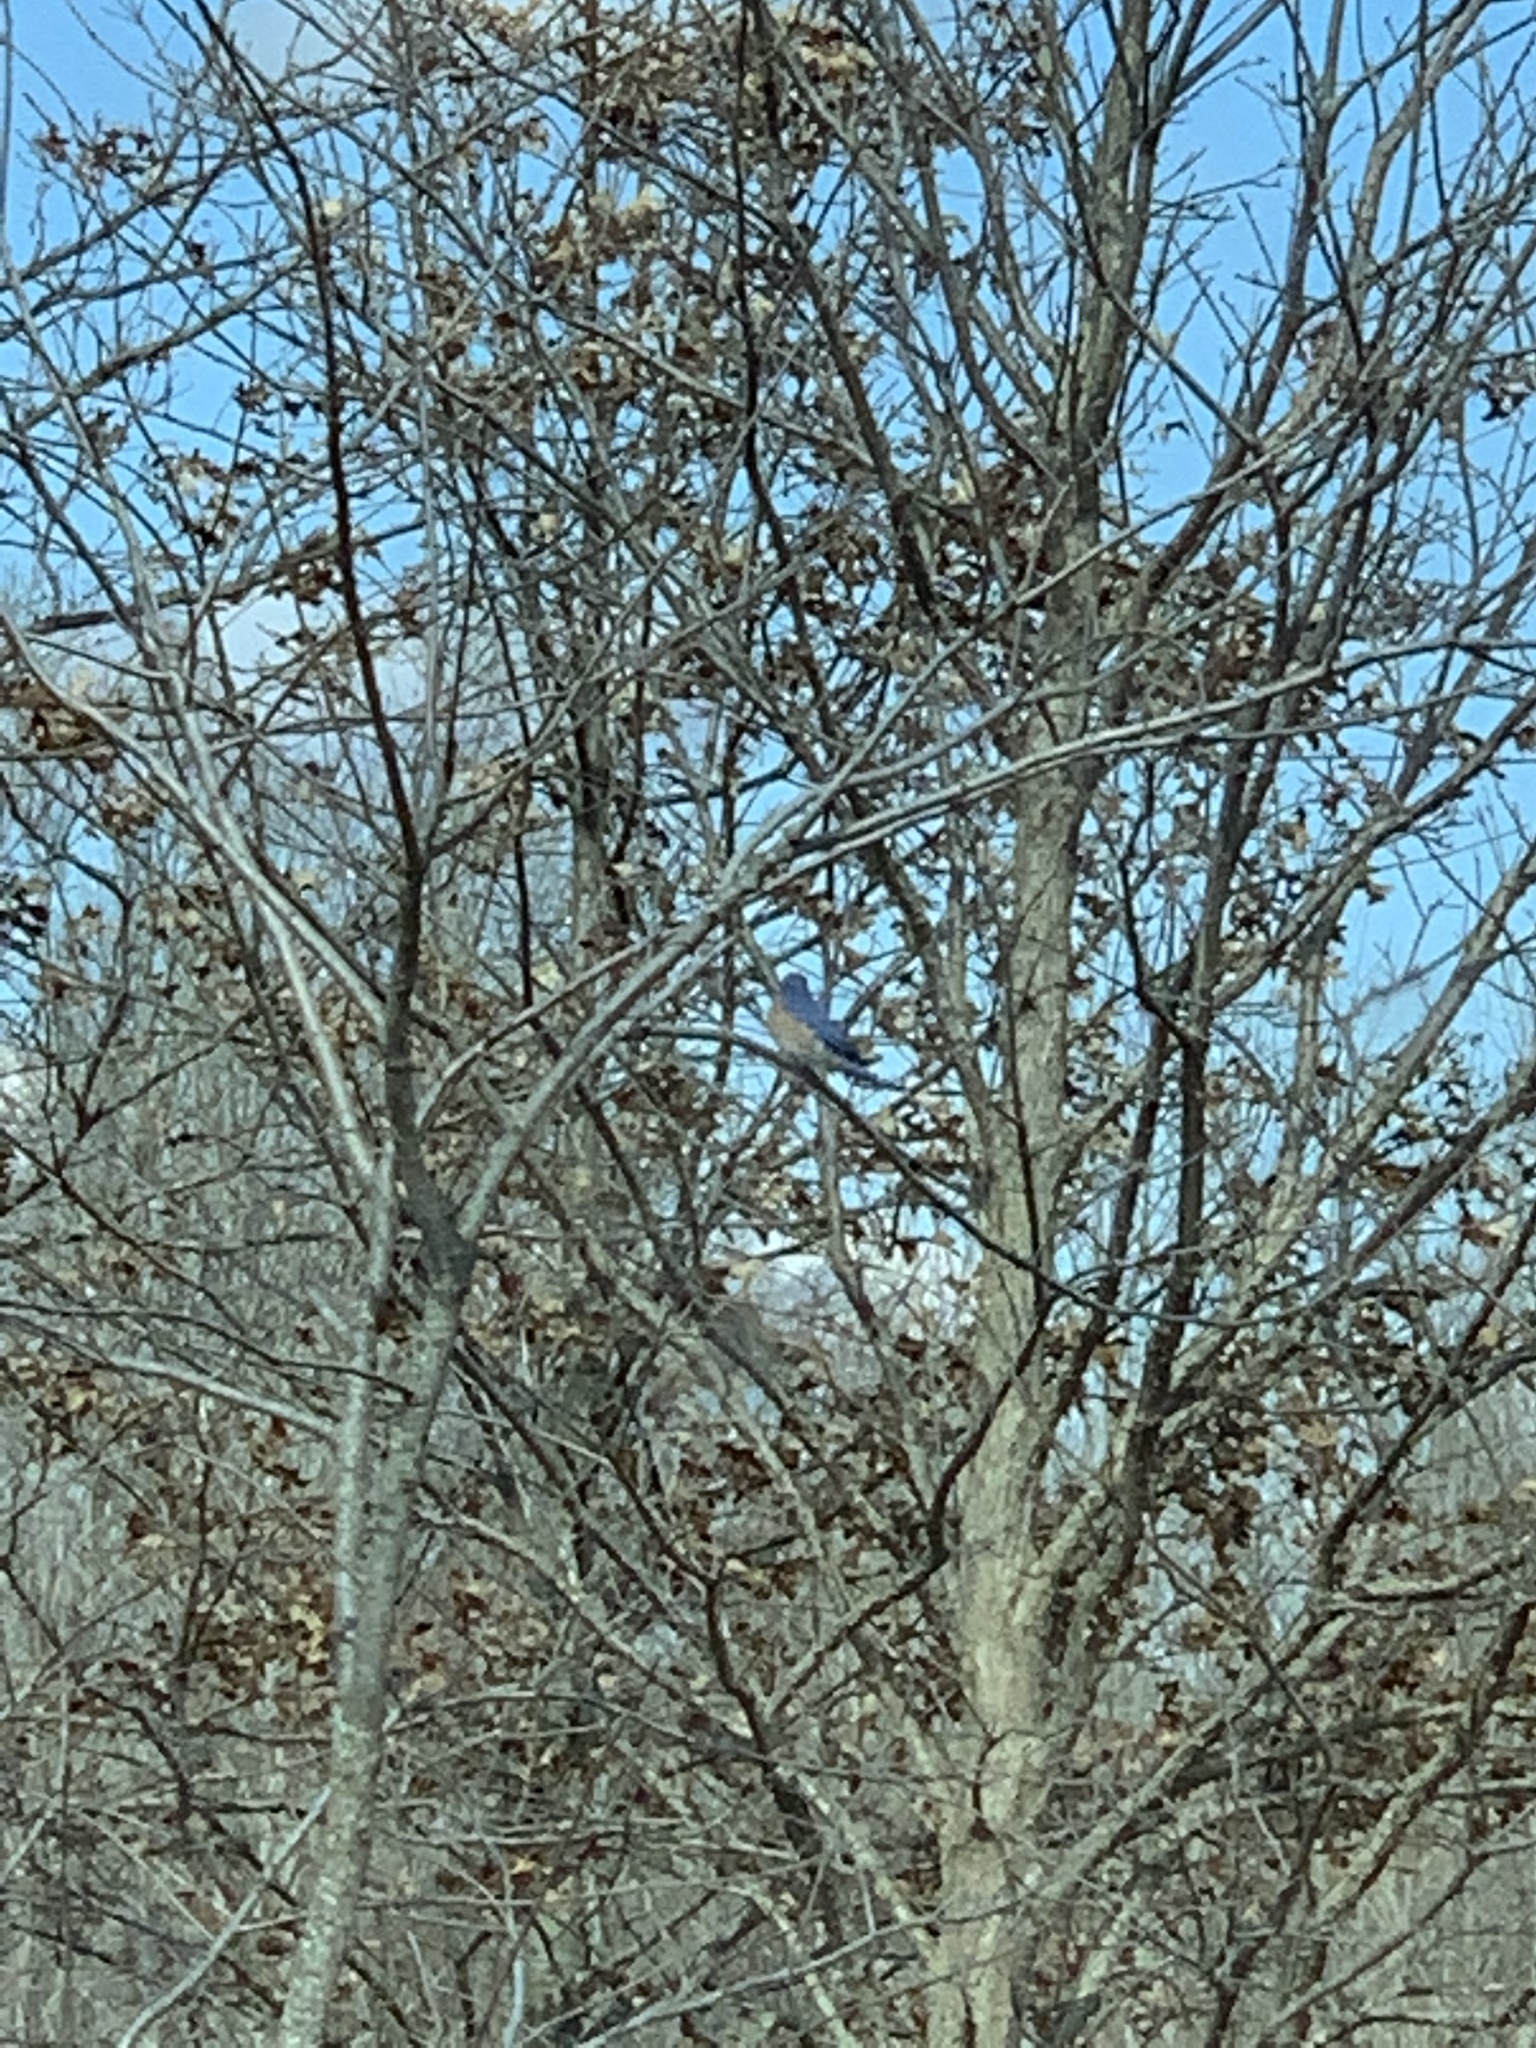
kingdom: Animalia
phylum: Chordata
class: Aves
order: Passeriformes
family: Turdidae
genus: Sialia
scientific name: Sialia sialis
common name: Eastern bluebird
